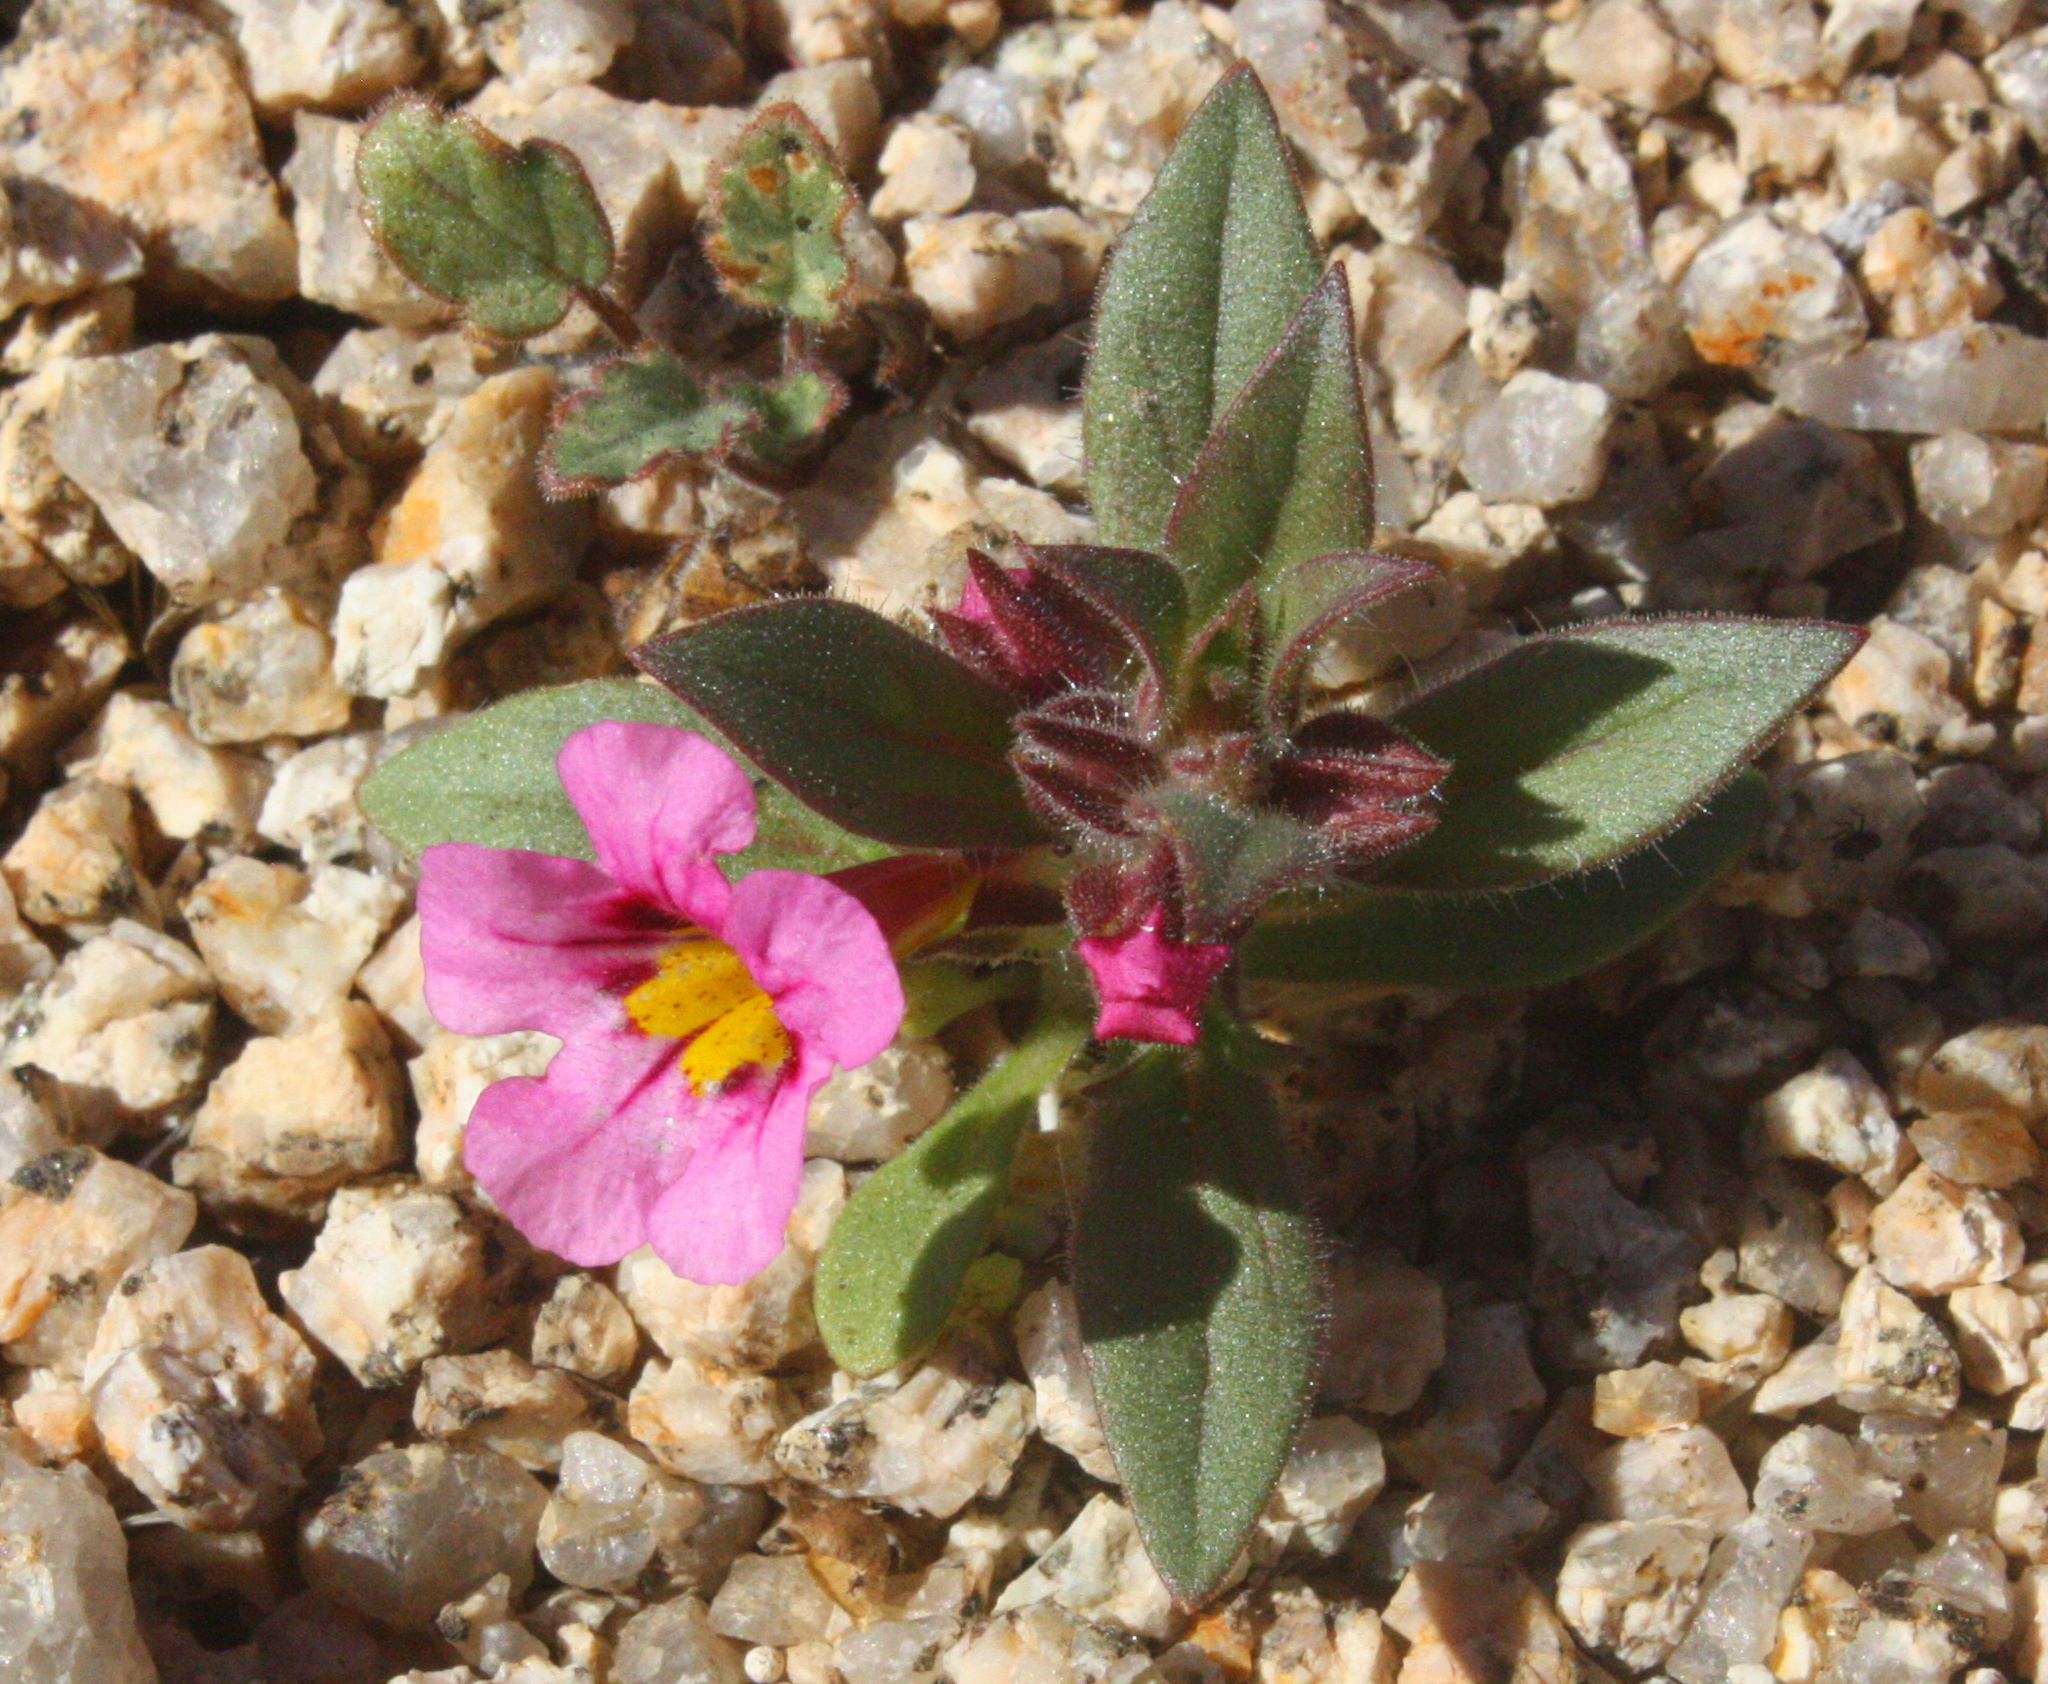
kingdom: Plantae
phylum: Tracheophyta
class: Magnoliopsida
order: Lamiales
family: Phrymaceae
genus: Diplacus
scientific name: Diplacus bigelovii
